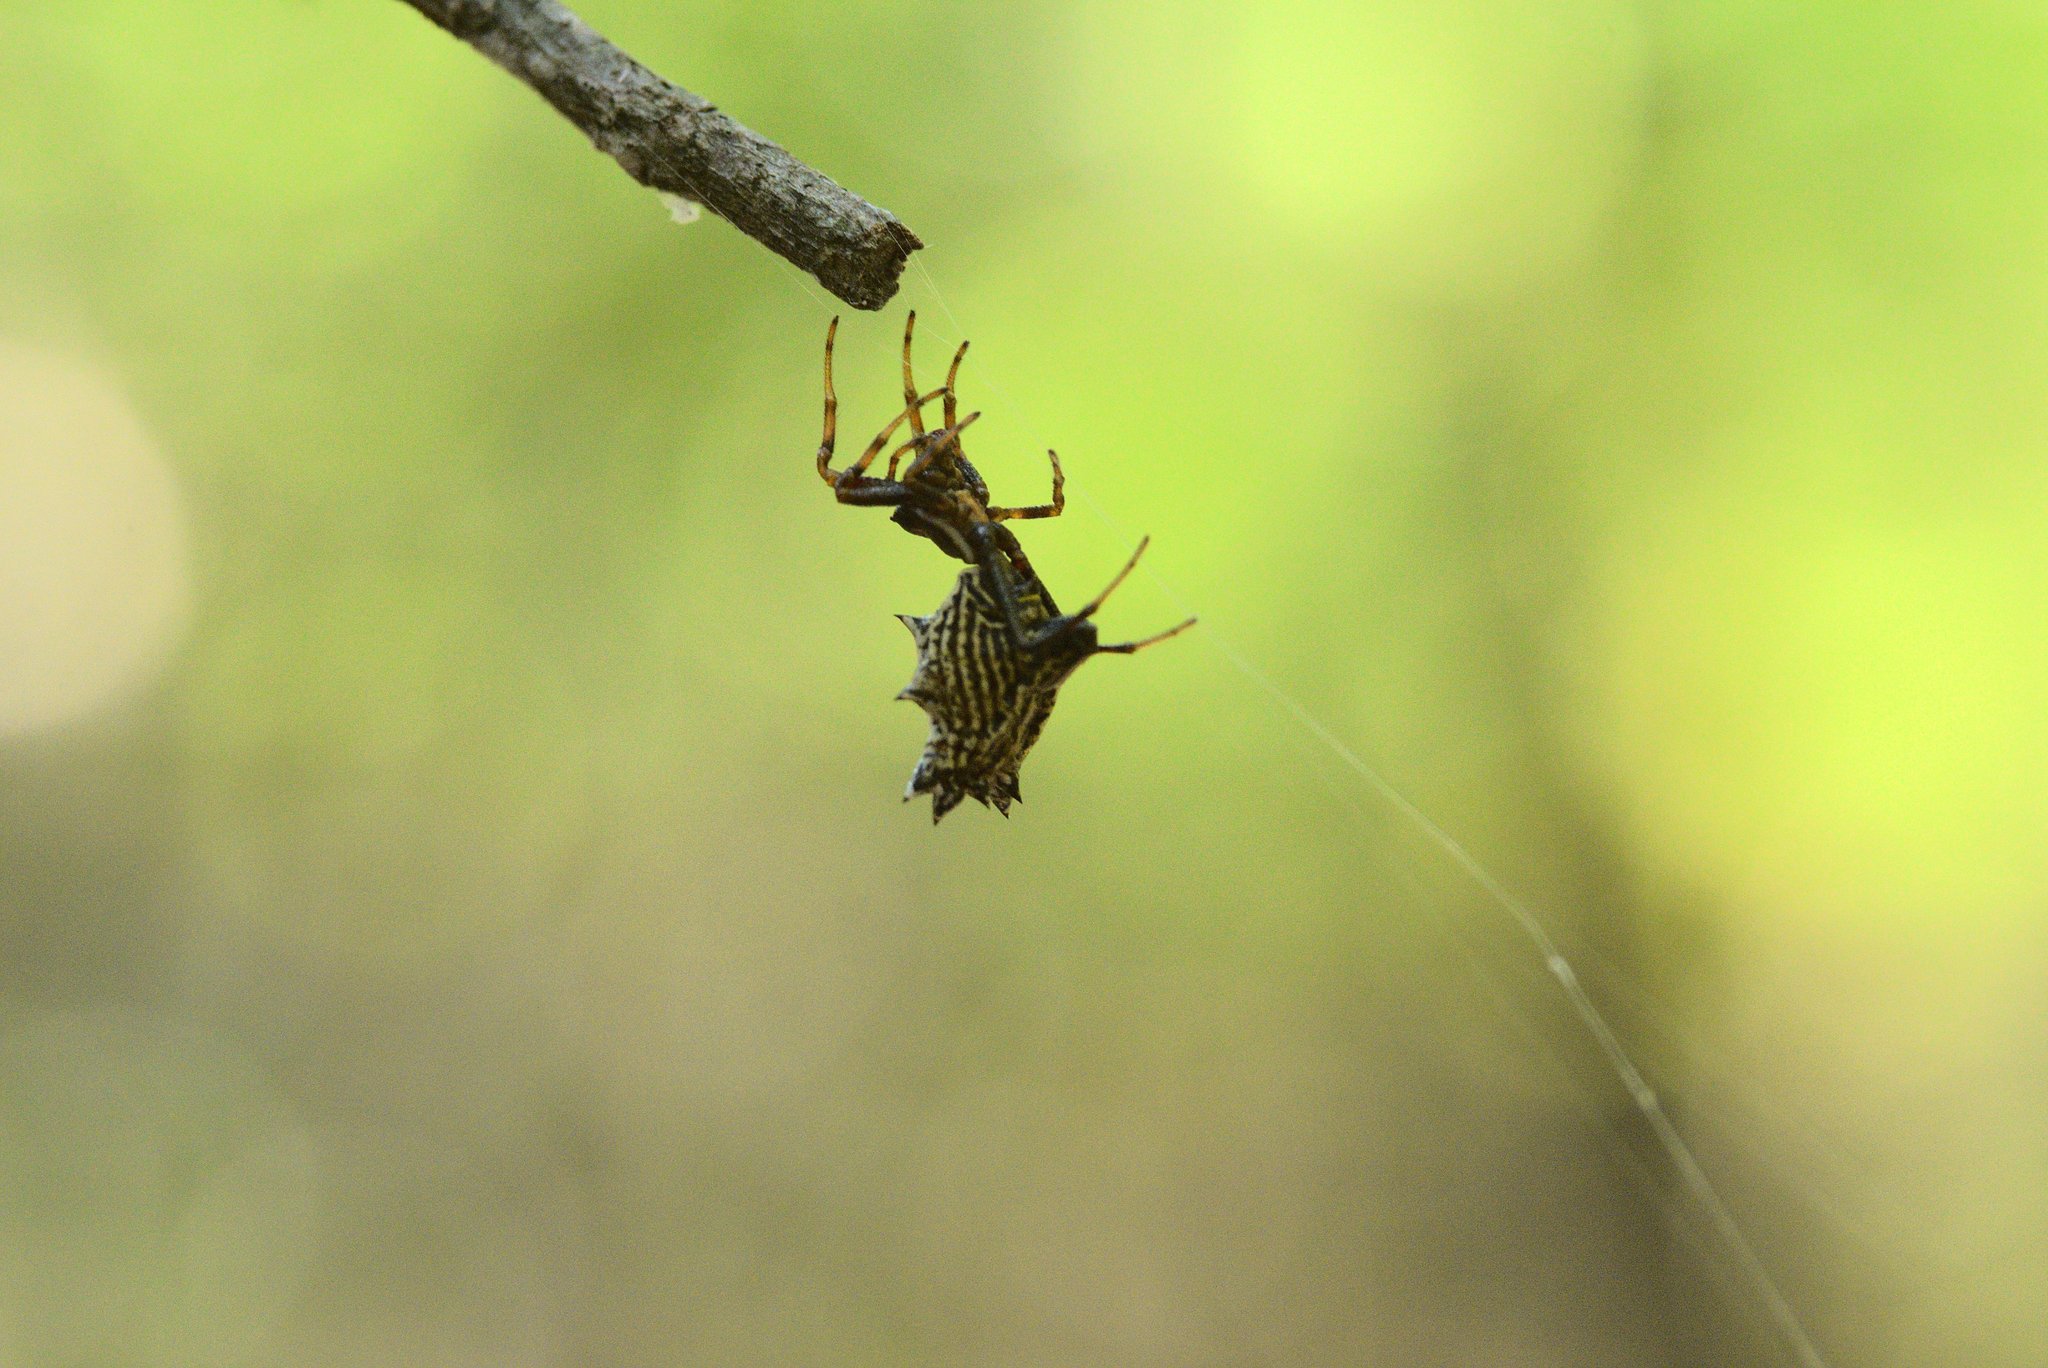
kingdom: Animalia
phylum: Arthropoda
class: Arachnida
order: Araneae
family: Araneidae
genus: Micrathena
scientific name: Micrathena gracilis
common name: Orb weavers
